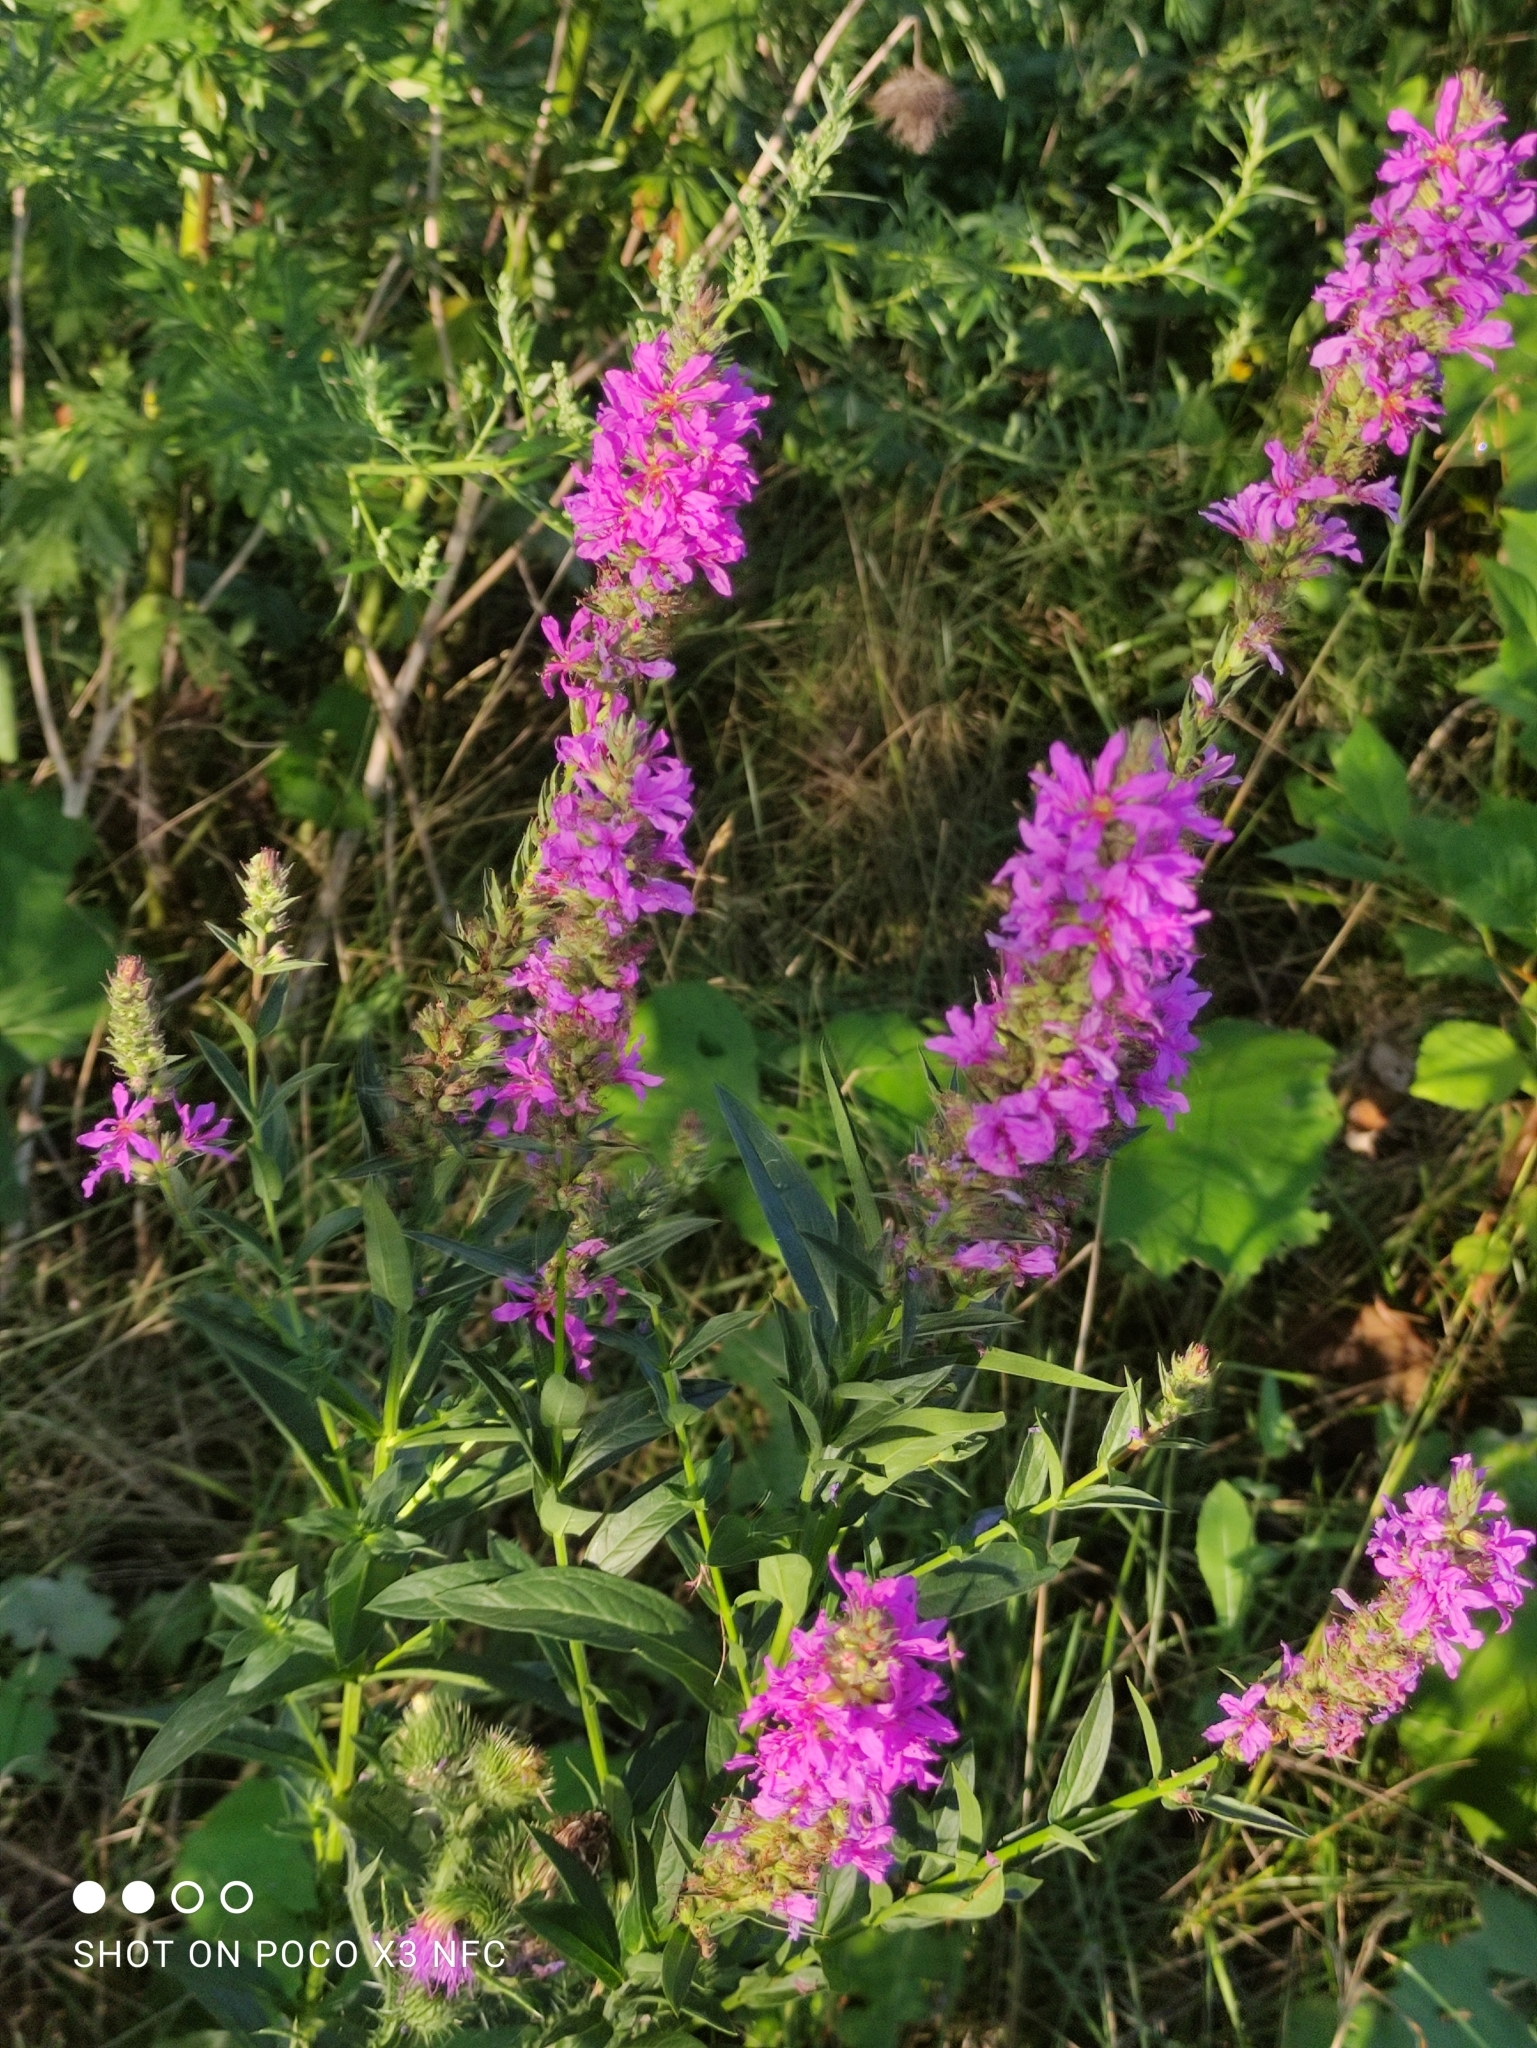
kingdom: Plantae
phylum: Tracheophyta
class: Magnoliopsida
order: Myrtales
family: Lythraceae
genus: Lythrum
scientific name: Lythrum salicaria
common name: Purple loosestrife
